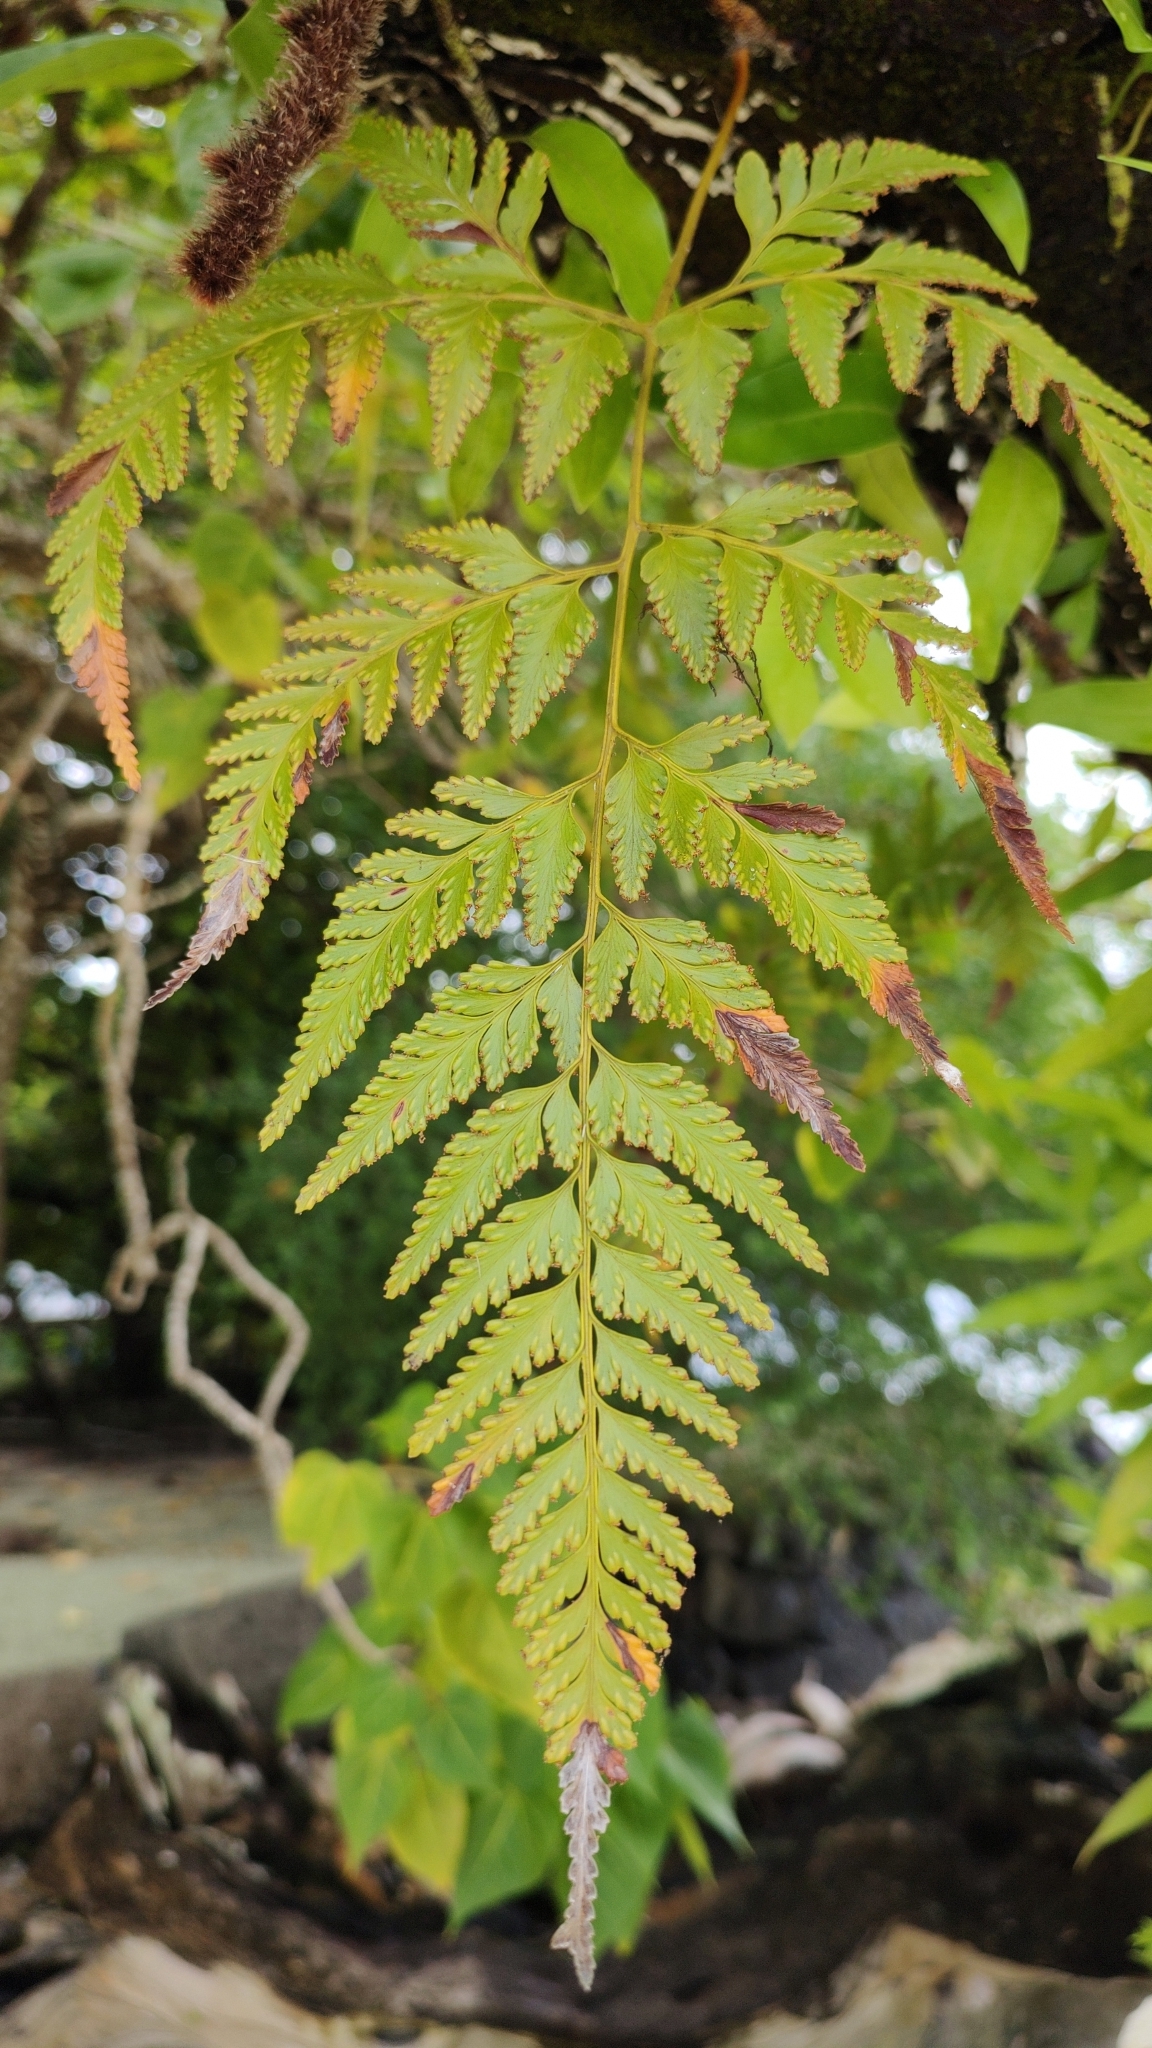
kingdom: Plantae
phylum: Tracheophyta
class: Polypodiopsida
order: Polypodiales
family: Davalliaceae
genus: Davallia
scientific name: Davallia solida
